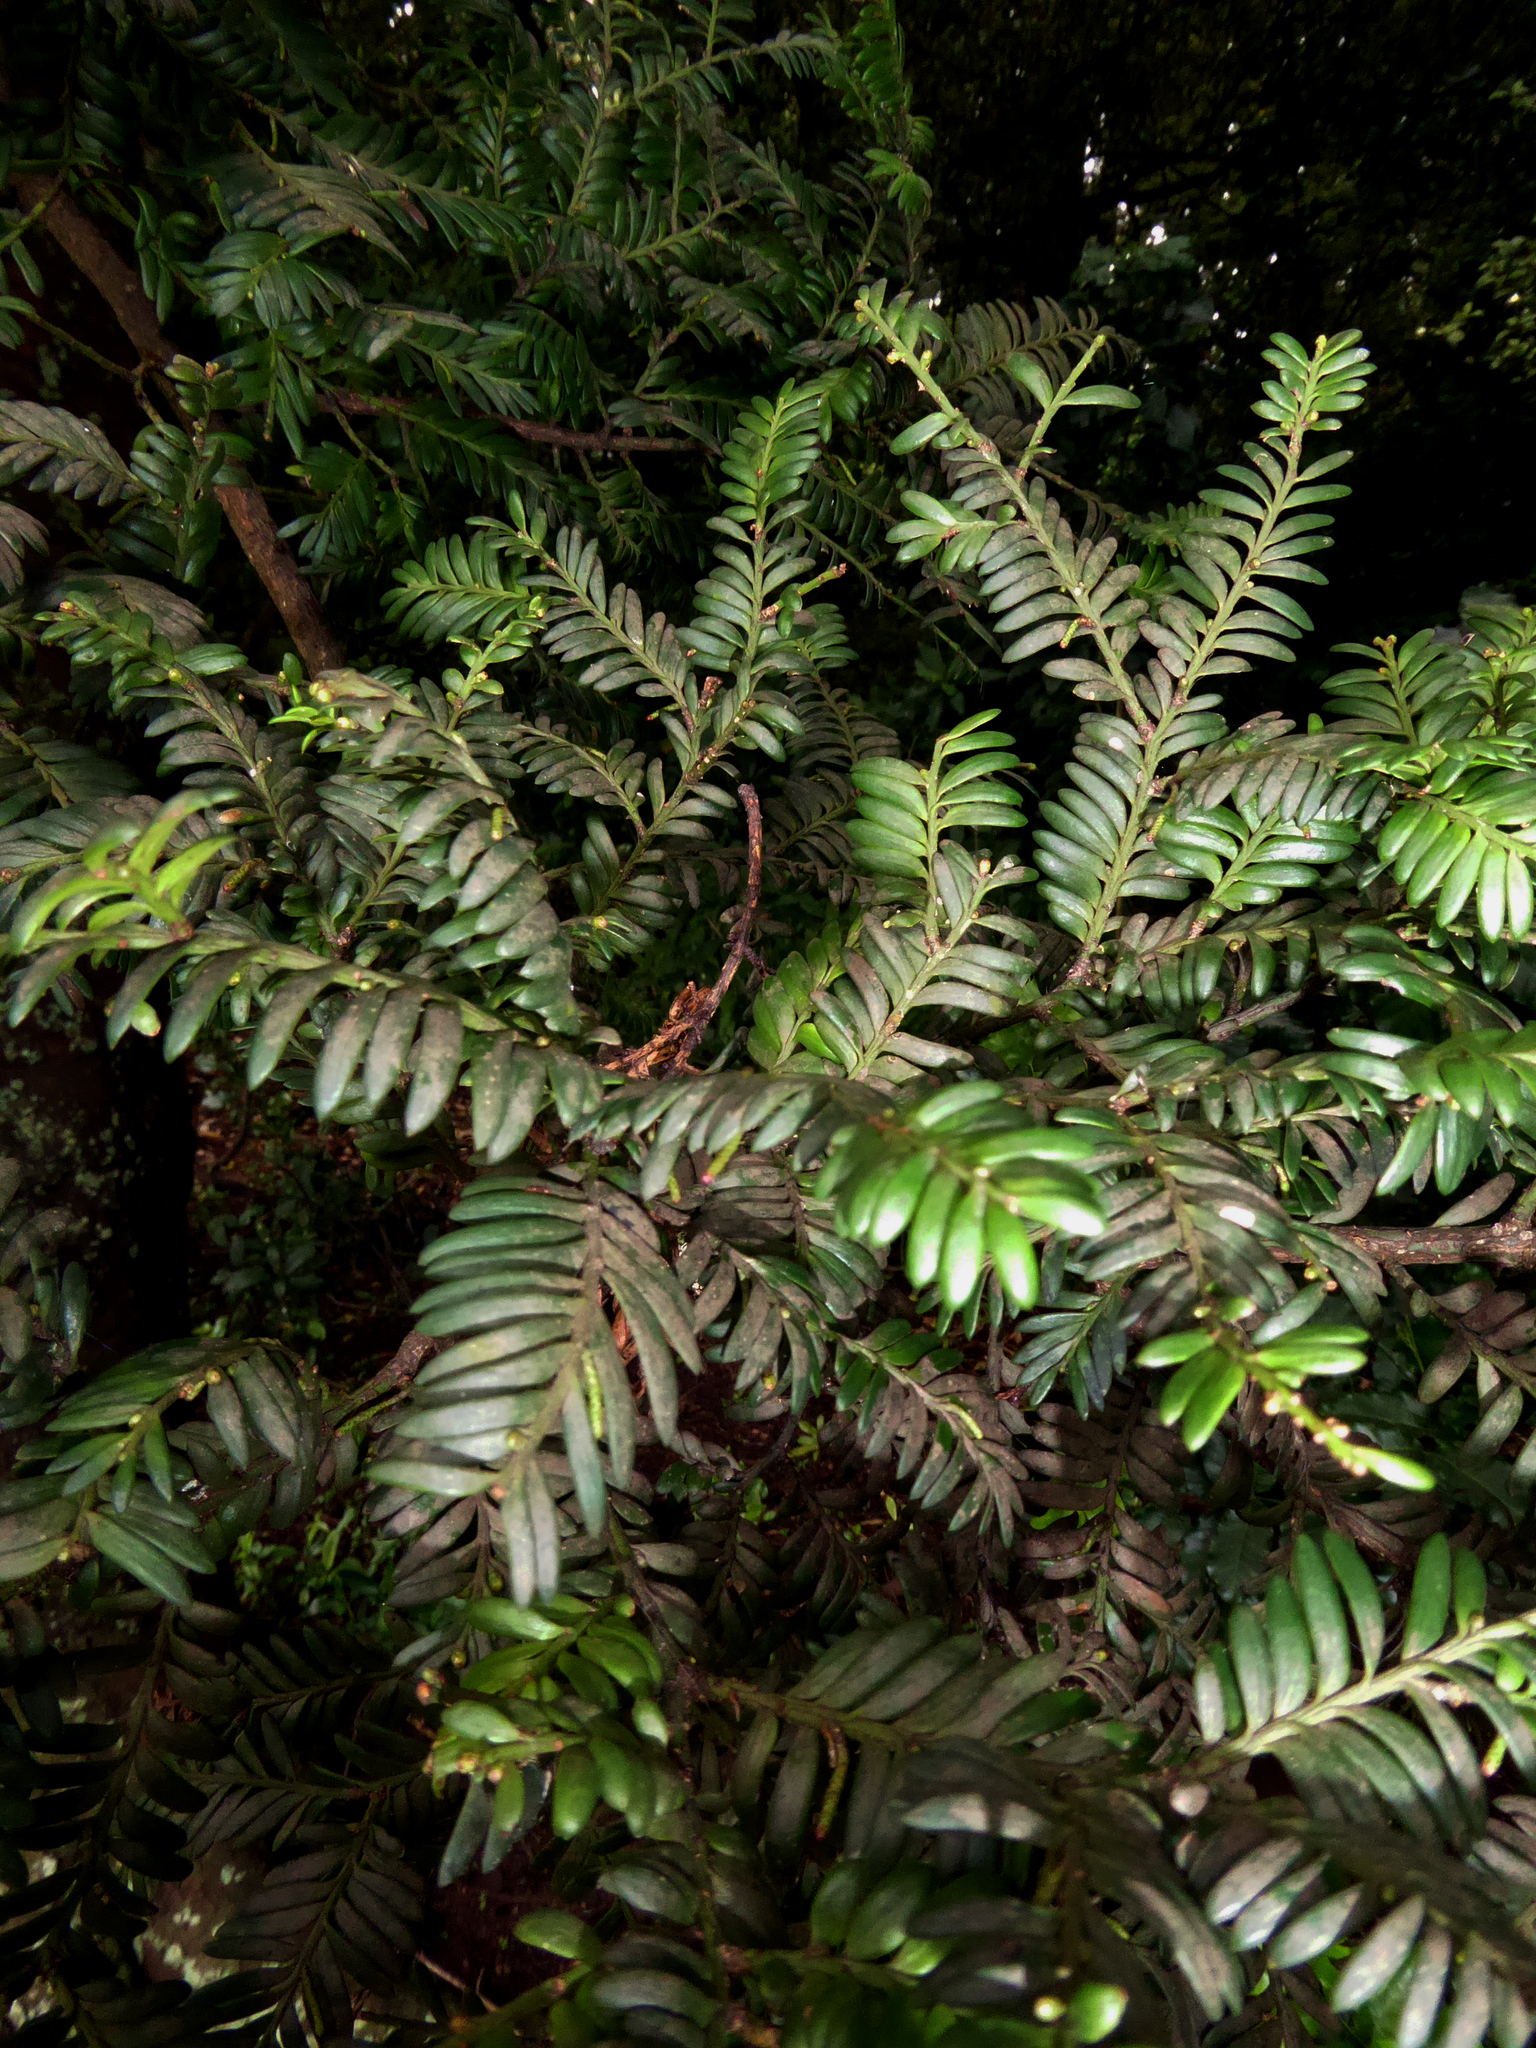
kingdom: Plantae
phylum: Tracheophyta
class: Pinopsida
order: Pinales
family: Podocarpaceae
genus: Prumnopitys
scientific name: Prumnopitys ferruginea
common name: Brown pine
